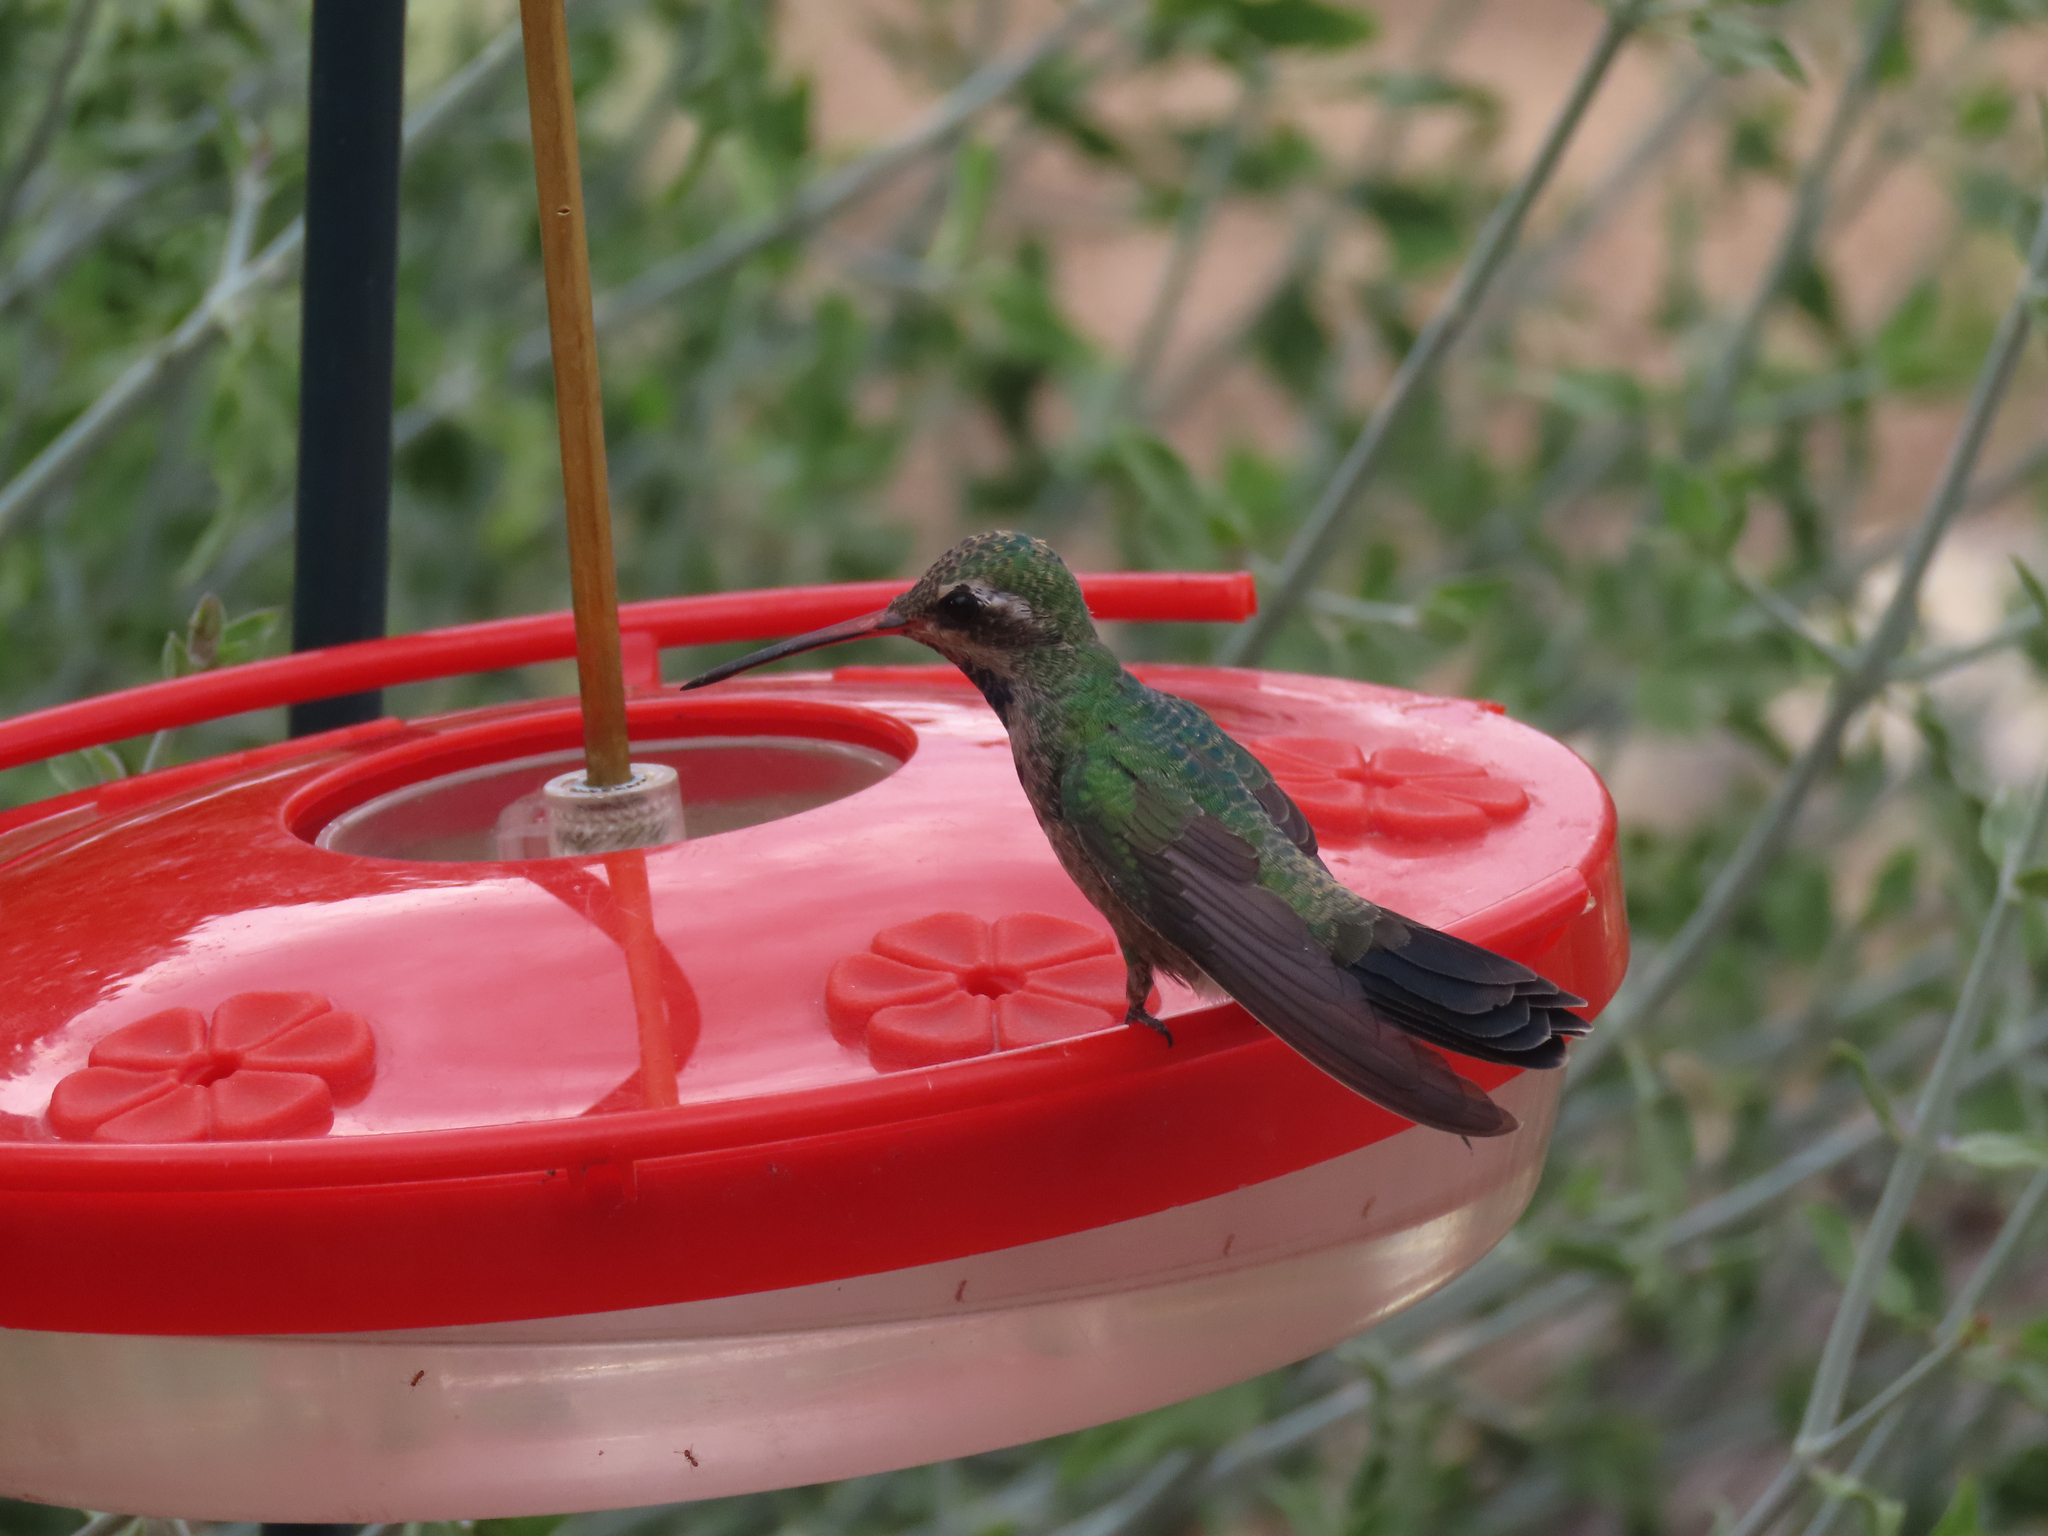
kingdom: Animalia
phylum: Chordata
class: Aves
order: Apodiformes
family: Trochilidae
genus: Cynanthus
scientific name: Cynanthus latirostris
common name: Broad-billed hummingbird
